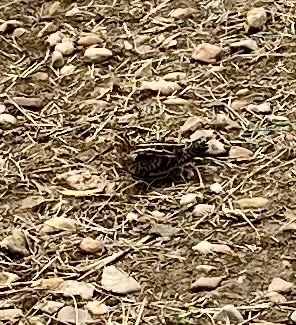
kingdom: Animalia
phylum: Chordata
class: Aves
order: Charadriiformes
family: Scolopacidae
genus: Gallinago
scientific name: Gallinago delicata
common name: Wilson's snipe
